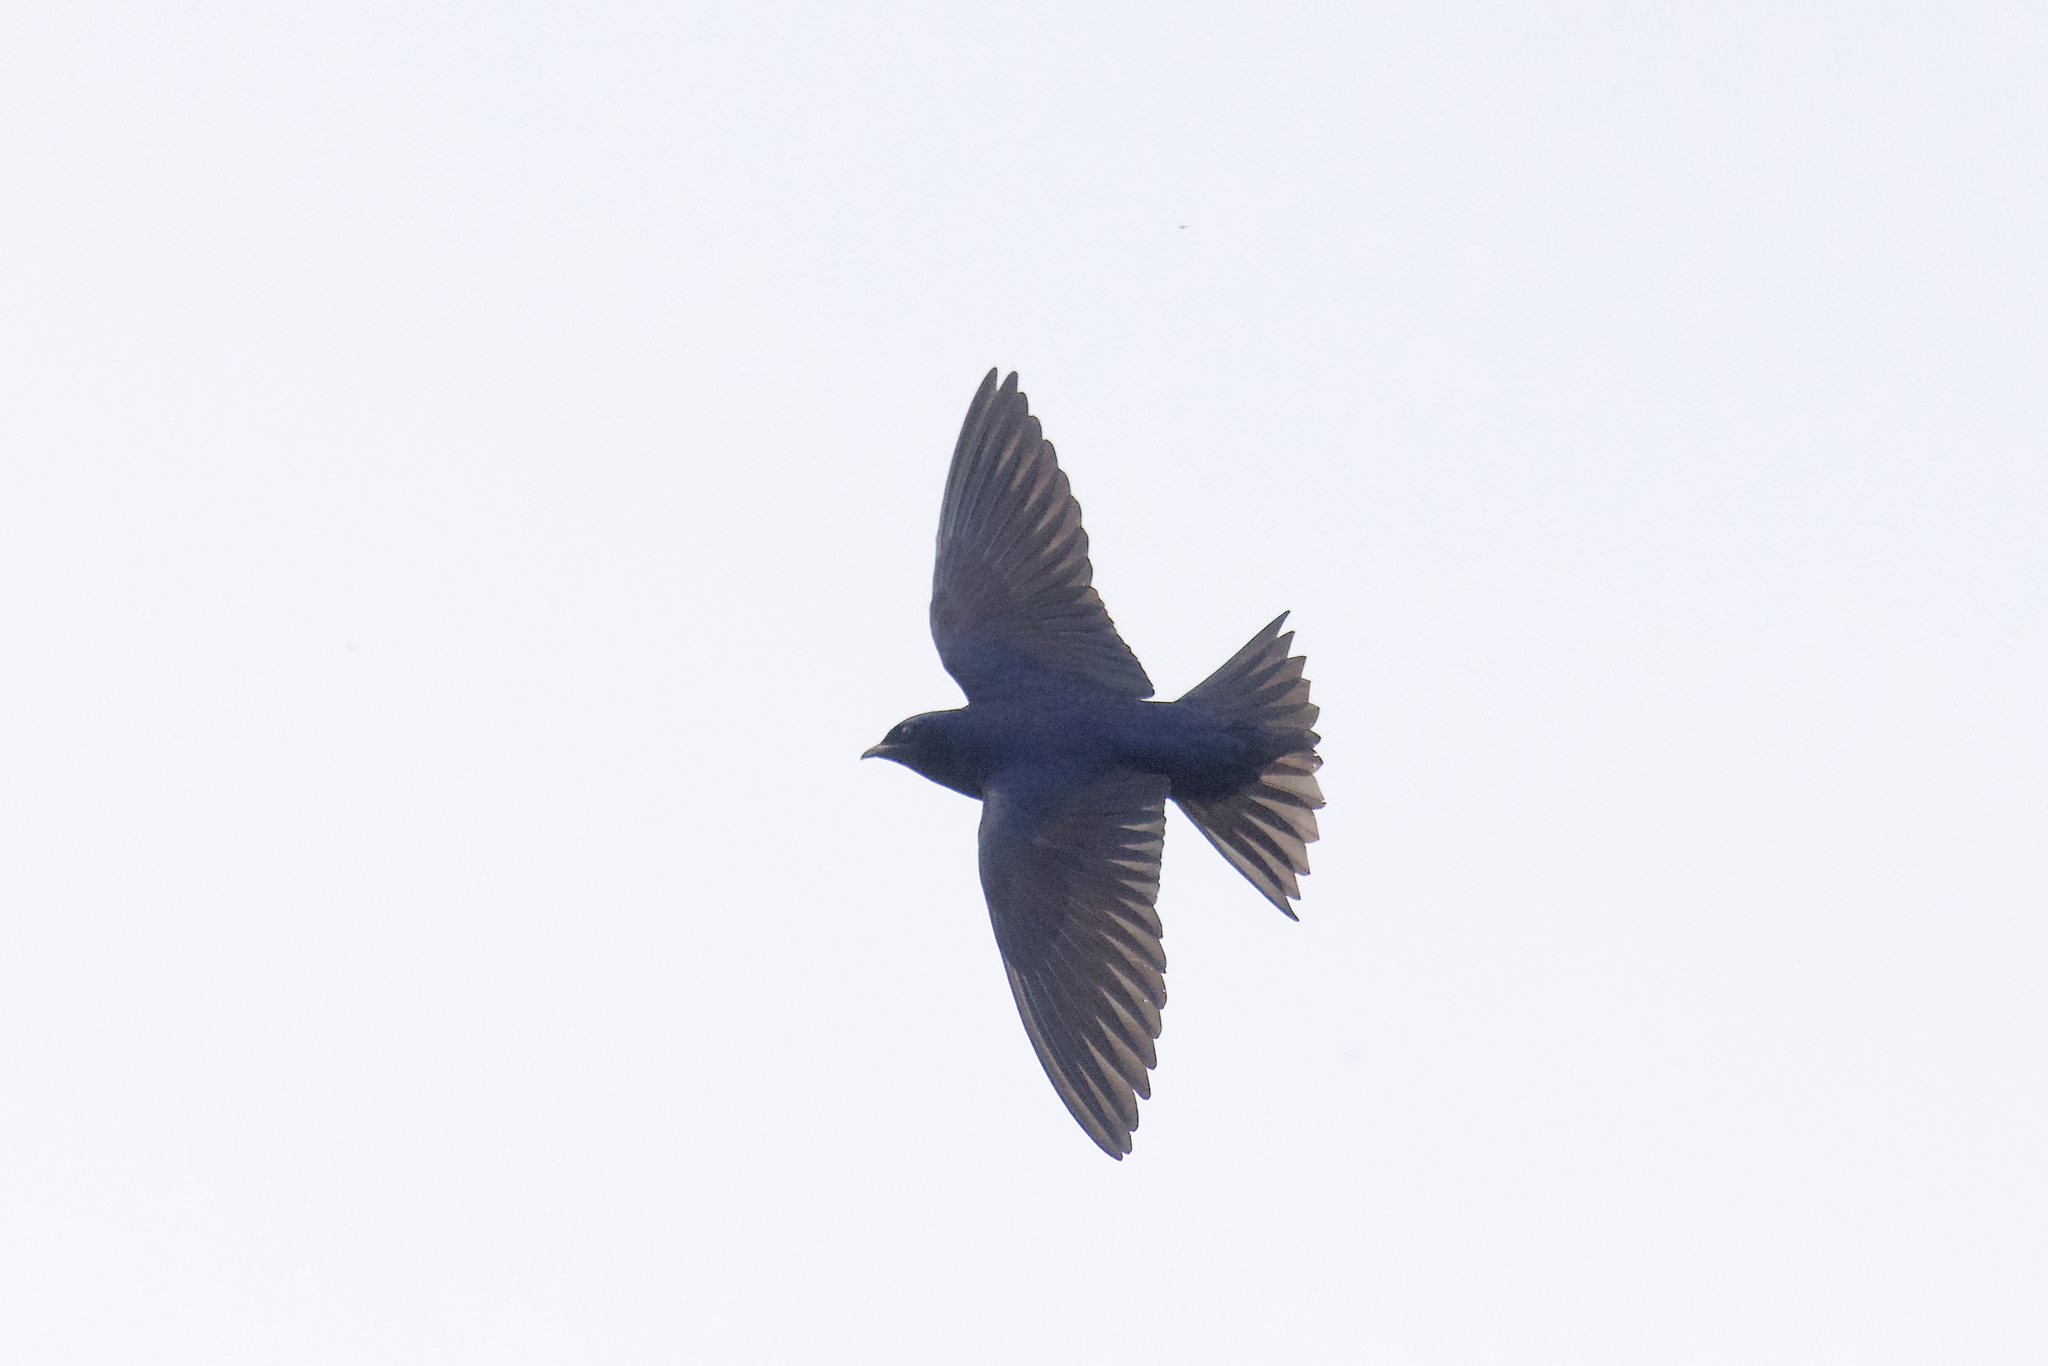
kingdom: Animalia
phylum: Chordata
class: Aves
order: Passeriformes
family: Hirundinidae
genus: Progne
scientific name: Progne subis
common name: Purple martin
